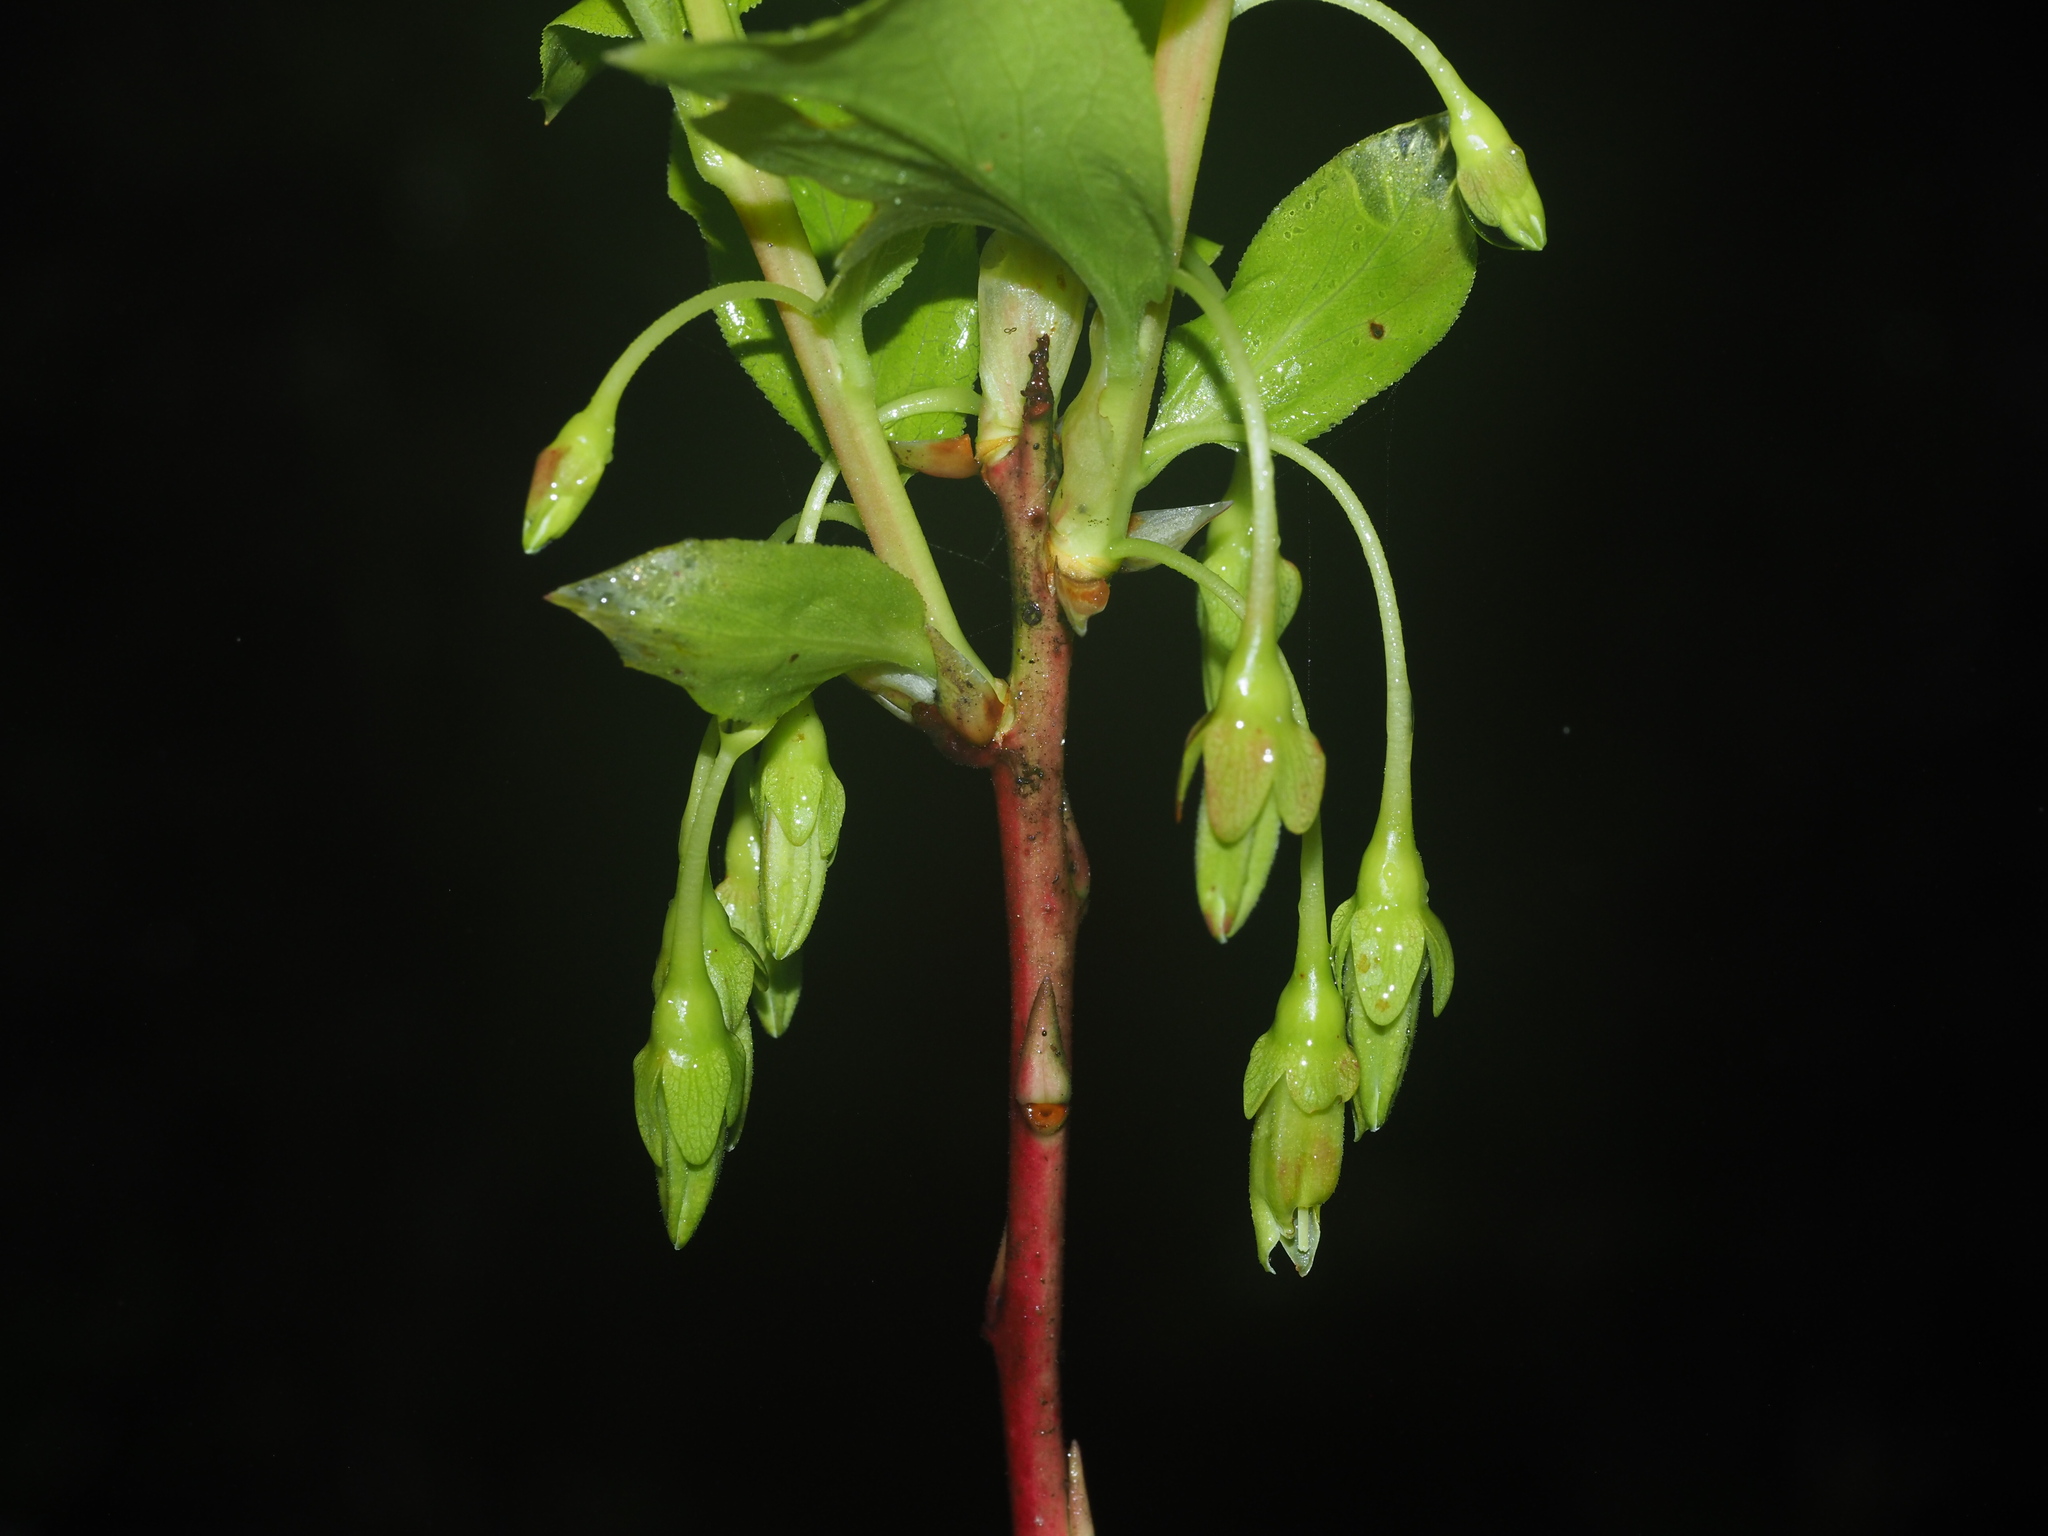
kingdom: Plantae
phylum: Tracheophyta
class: Magnoliopsida
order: Ericales
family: Ericaceae
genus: Vaccinium
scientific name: Vaccinium calycinum
